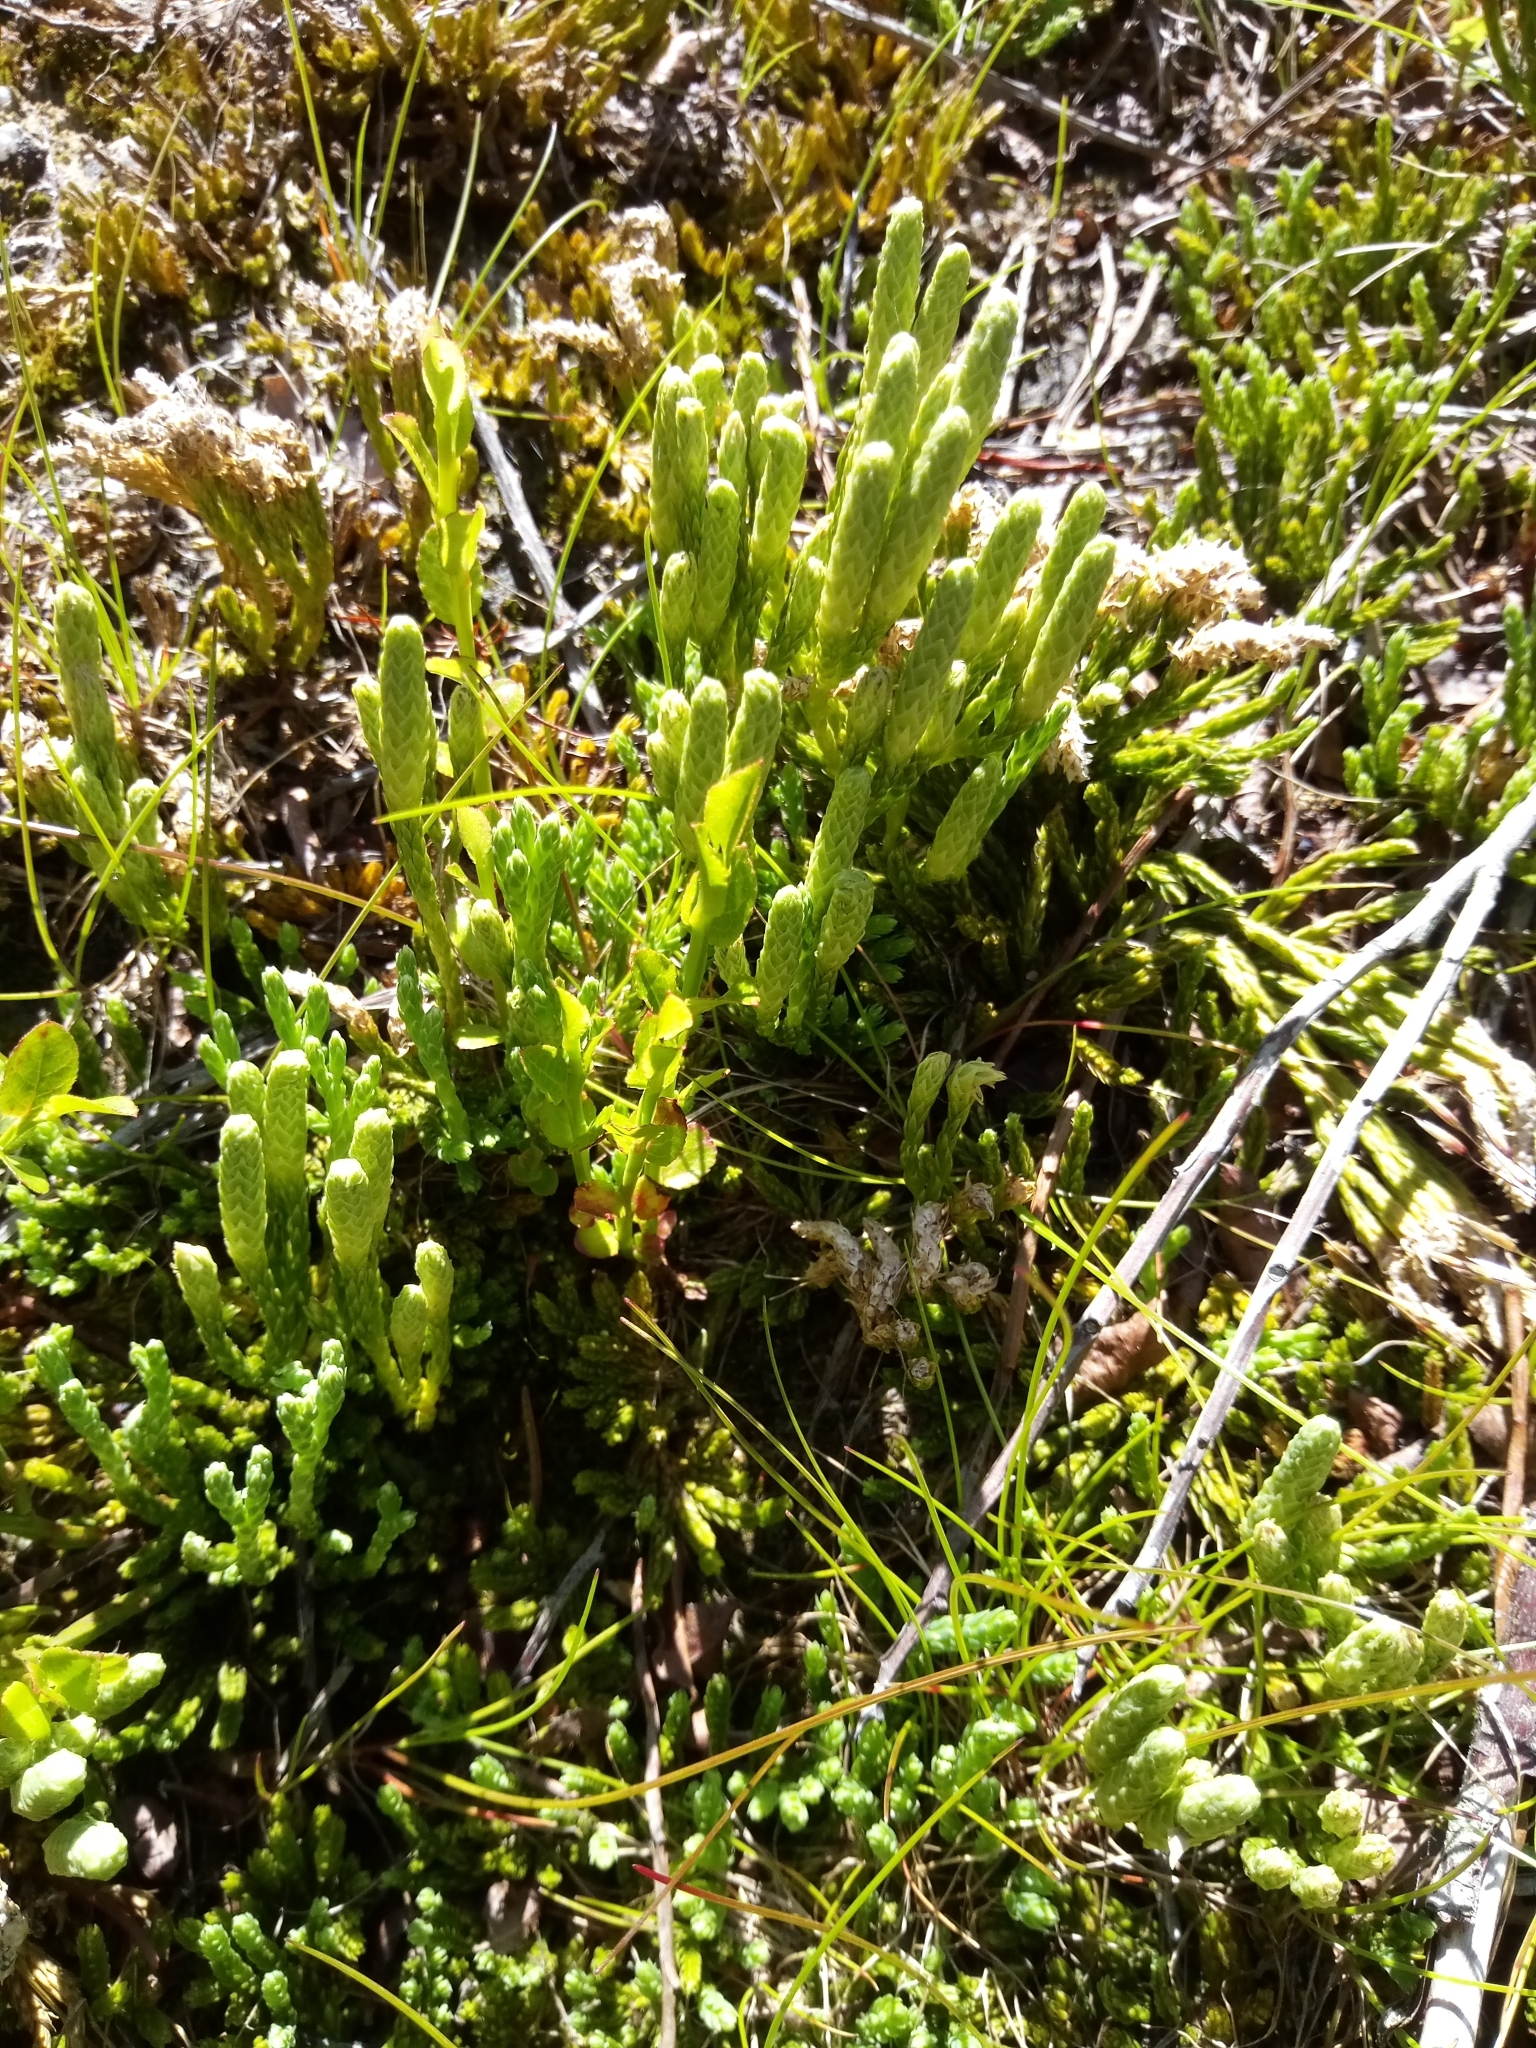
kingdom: Plantae
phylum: Tracheophyta
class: Lycopodiopsida
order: Lycopodiales
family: Lycopodiaceae
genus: Diphasiastrum
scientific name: Diphasiastrum alpinum
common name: Alpine clubmoss
